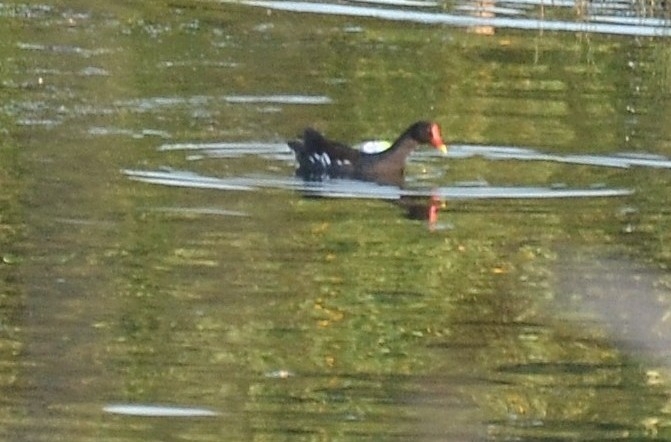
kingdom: Animalia
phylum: Chordata
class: Aves
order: Gruiformes
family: Rallidae
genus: Gallinula
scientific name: Gallinula chloropus
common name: Common moorhen
